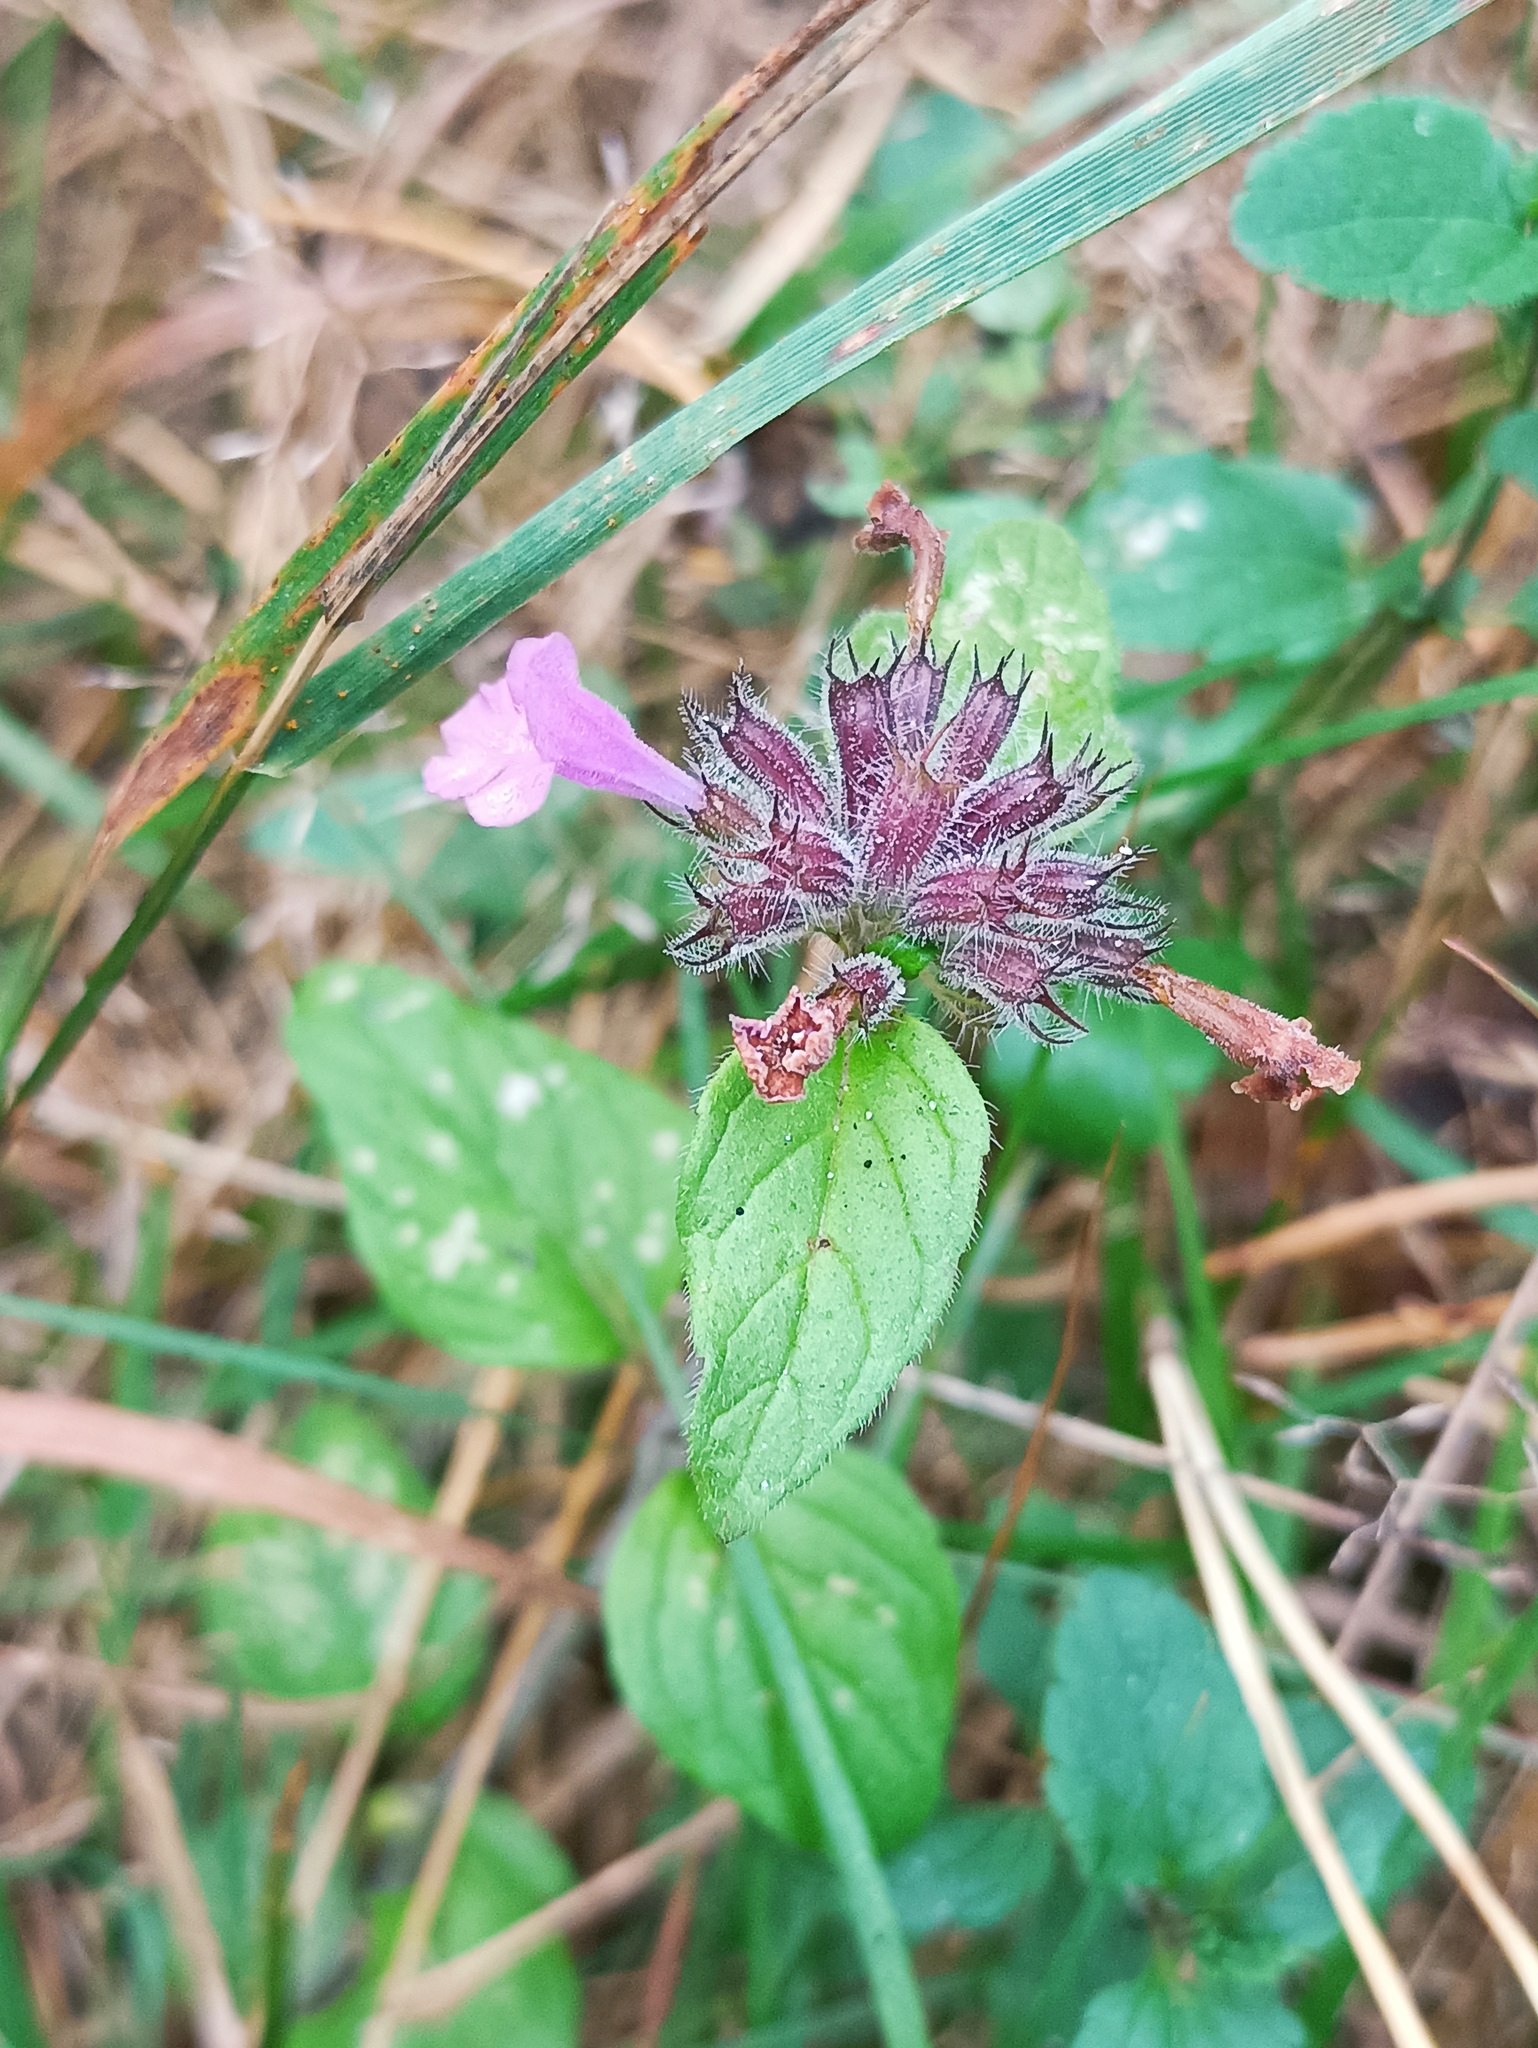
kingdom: Plantae
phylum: Tracheophyta
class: Magnoliopsida
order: Lamiales
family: Lamiaceae
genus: Clinopodium
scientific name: Clinopodium vulgare
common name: Wild basil
